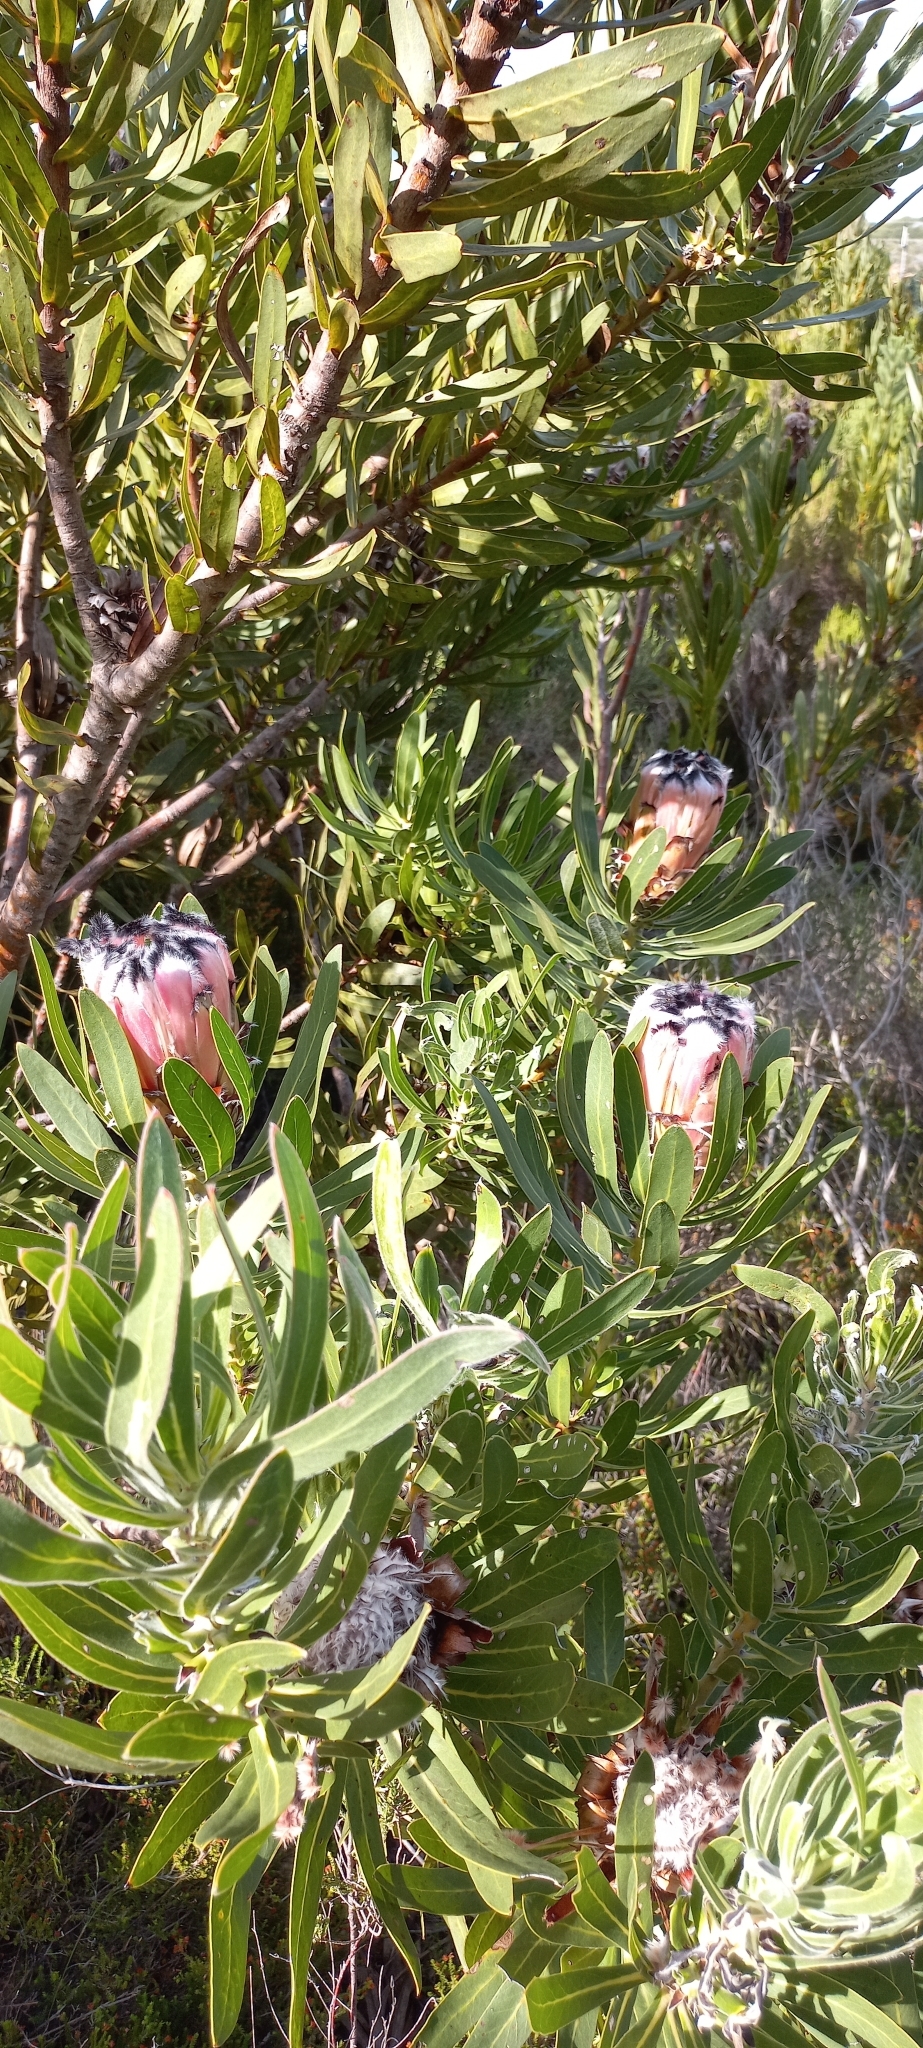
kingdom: Plantae
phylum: Tracheophyta
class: Magnoliopsida
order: Proteales
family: Proteaceae
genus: Protea
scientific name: Protea
